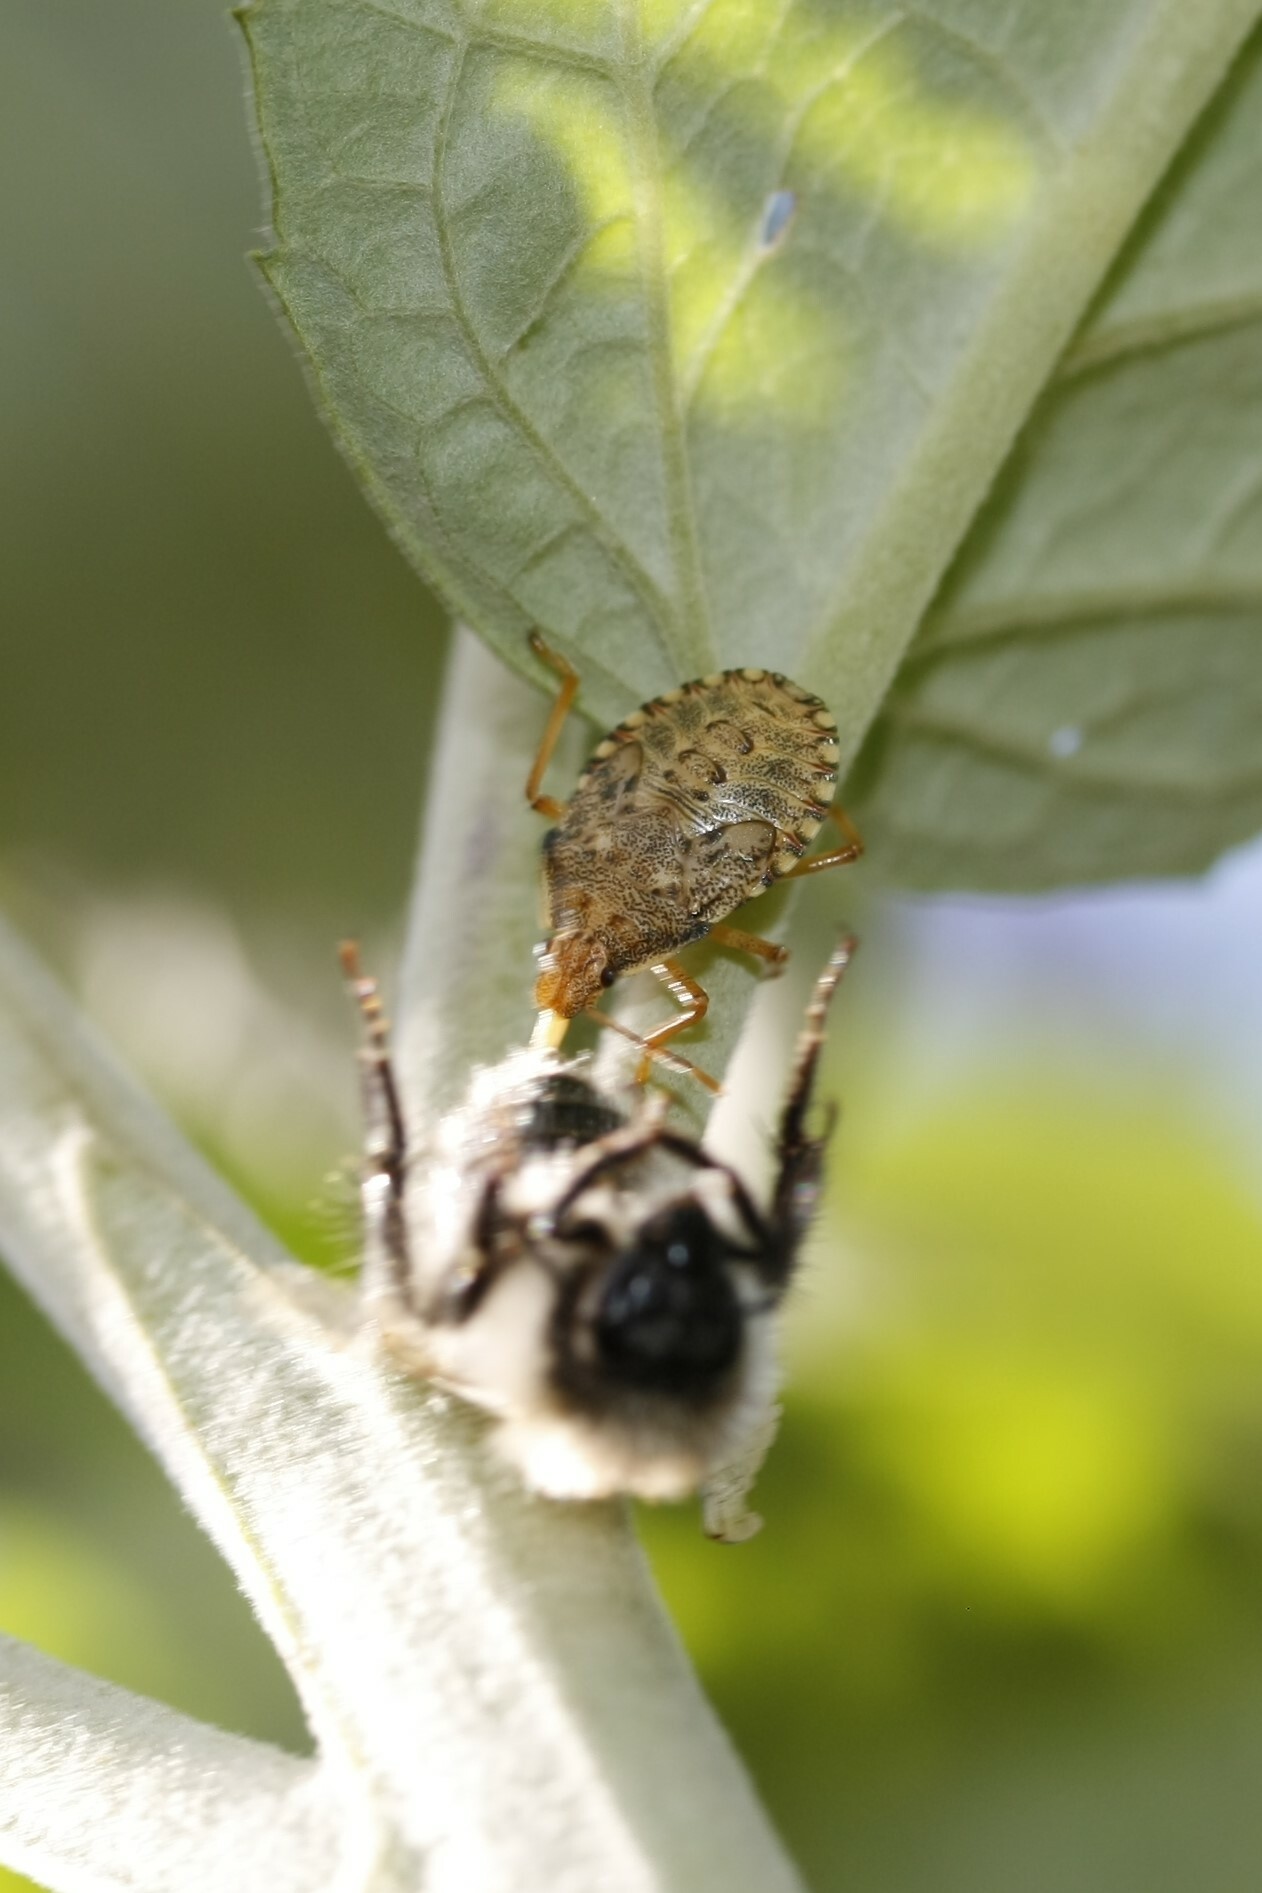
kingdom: Animalia
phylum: Arthropoda
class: Insecta
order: Hemiptera
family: Pentatomidae
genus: Arma
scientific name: Arma custos
